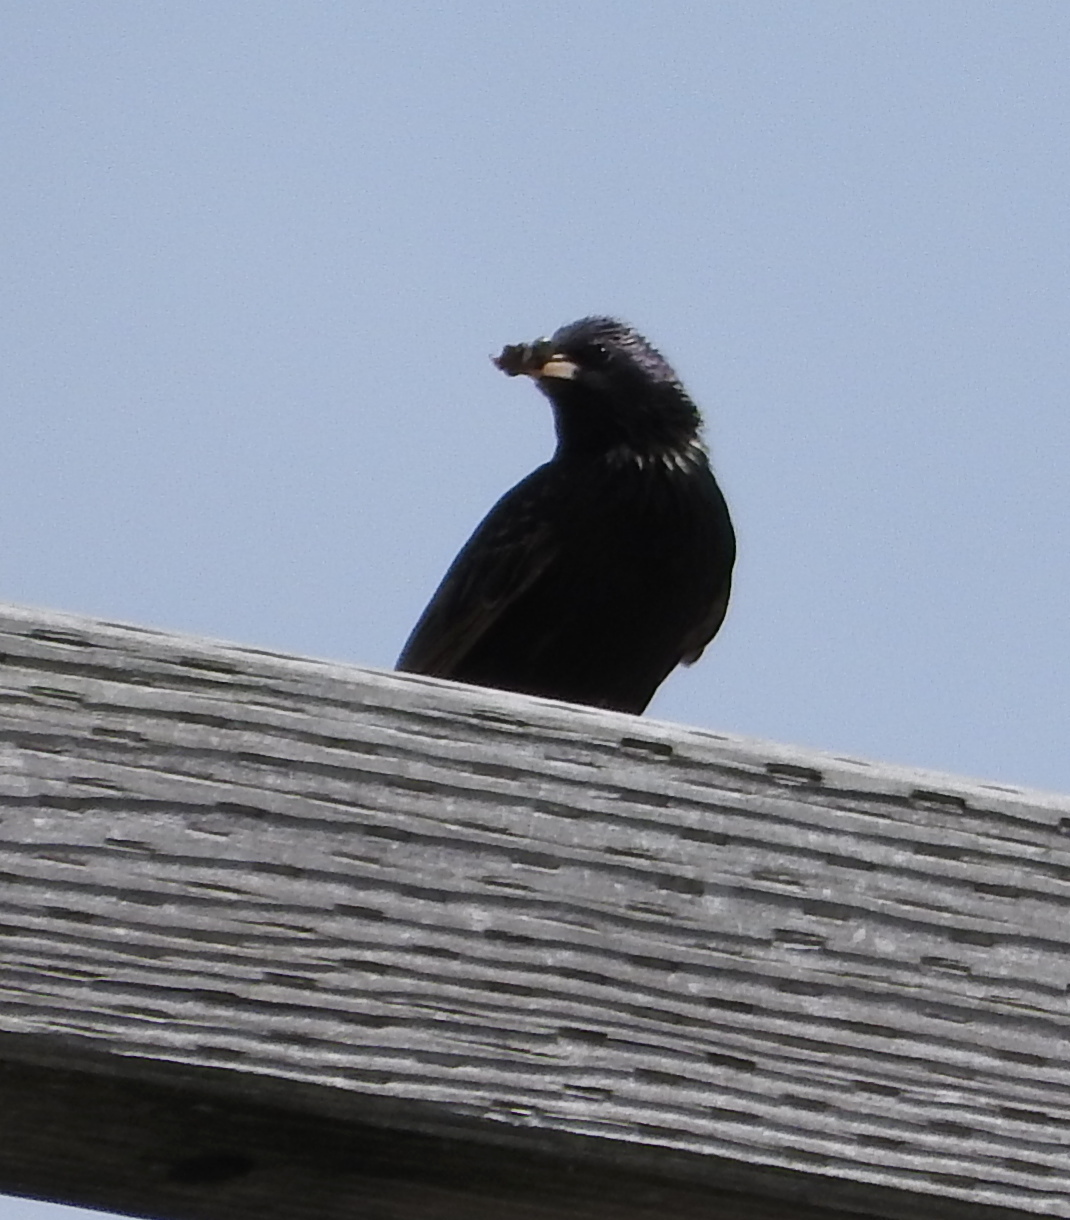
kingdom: Animalia
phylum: Chordata
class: Aves
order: Passeriformes
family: Sturnidae
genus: Sturnus
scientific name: Sturnus vulgaris
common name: Common starling
